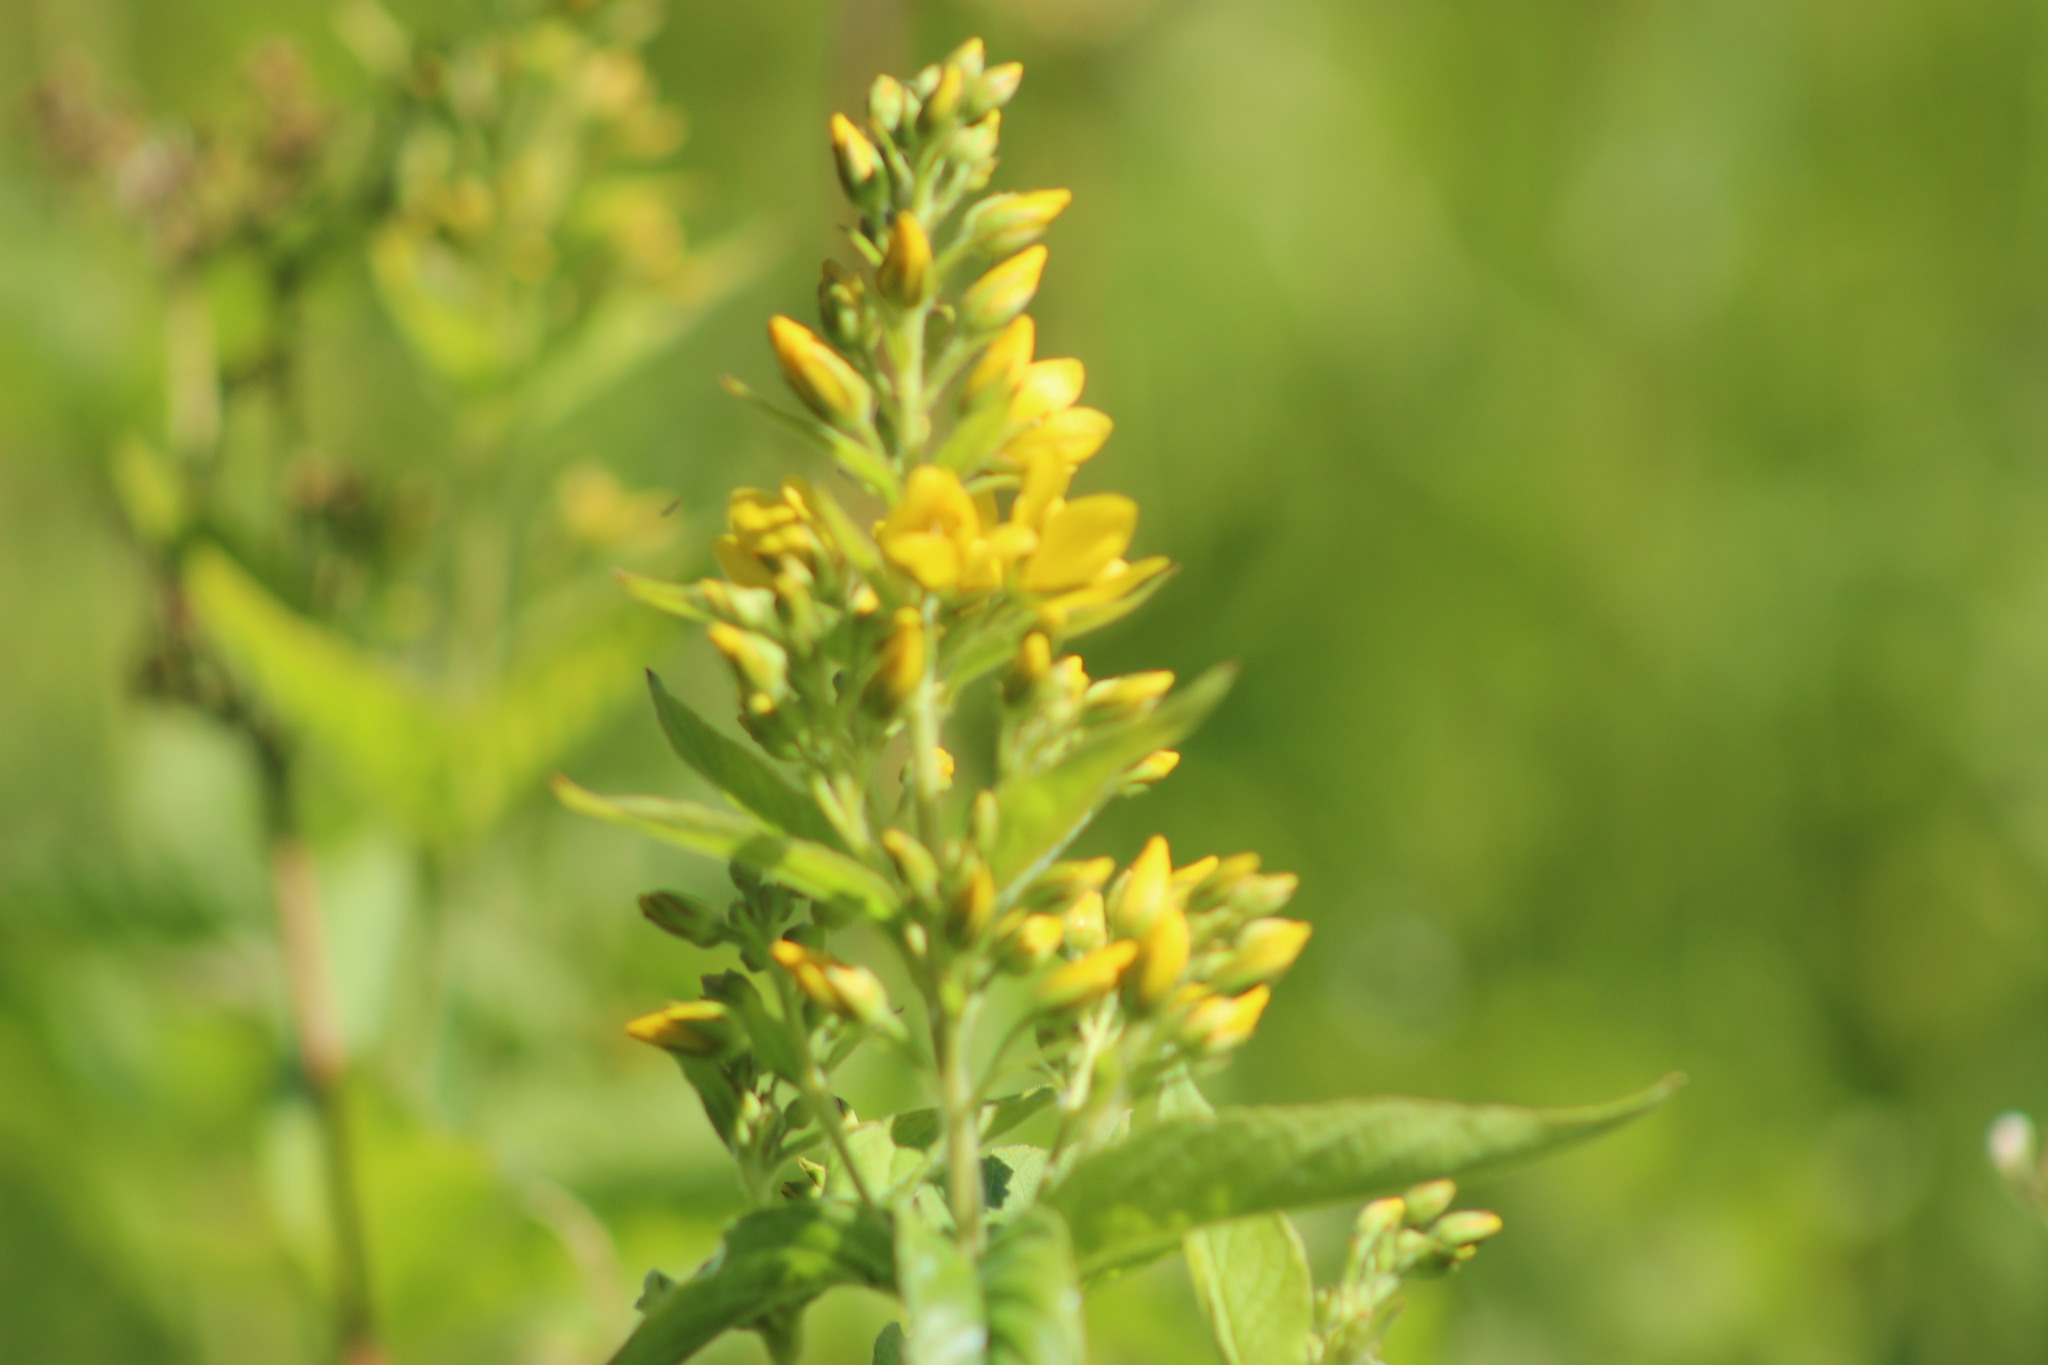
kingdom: Plantae
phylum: Tracheophyta
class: Magnoliopsida
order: Ericales
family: Primulaceae
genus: Lysimachia
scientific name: Lysimachia vulgaris
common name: Yellow loosestrife
